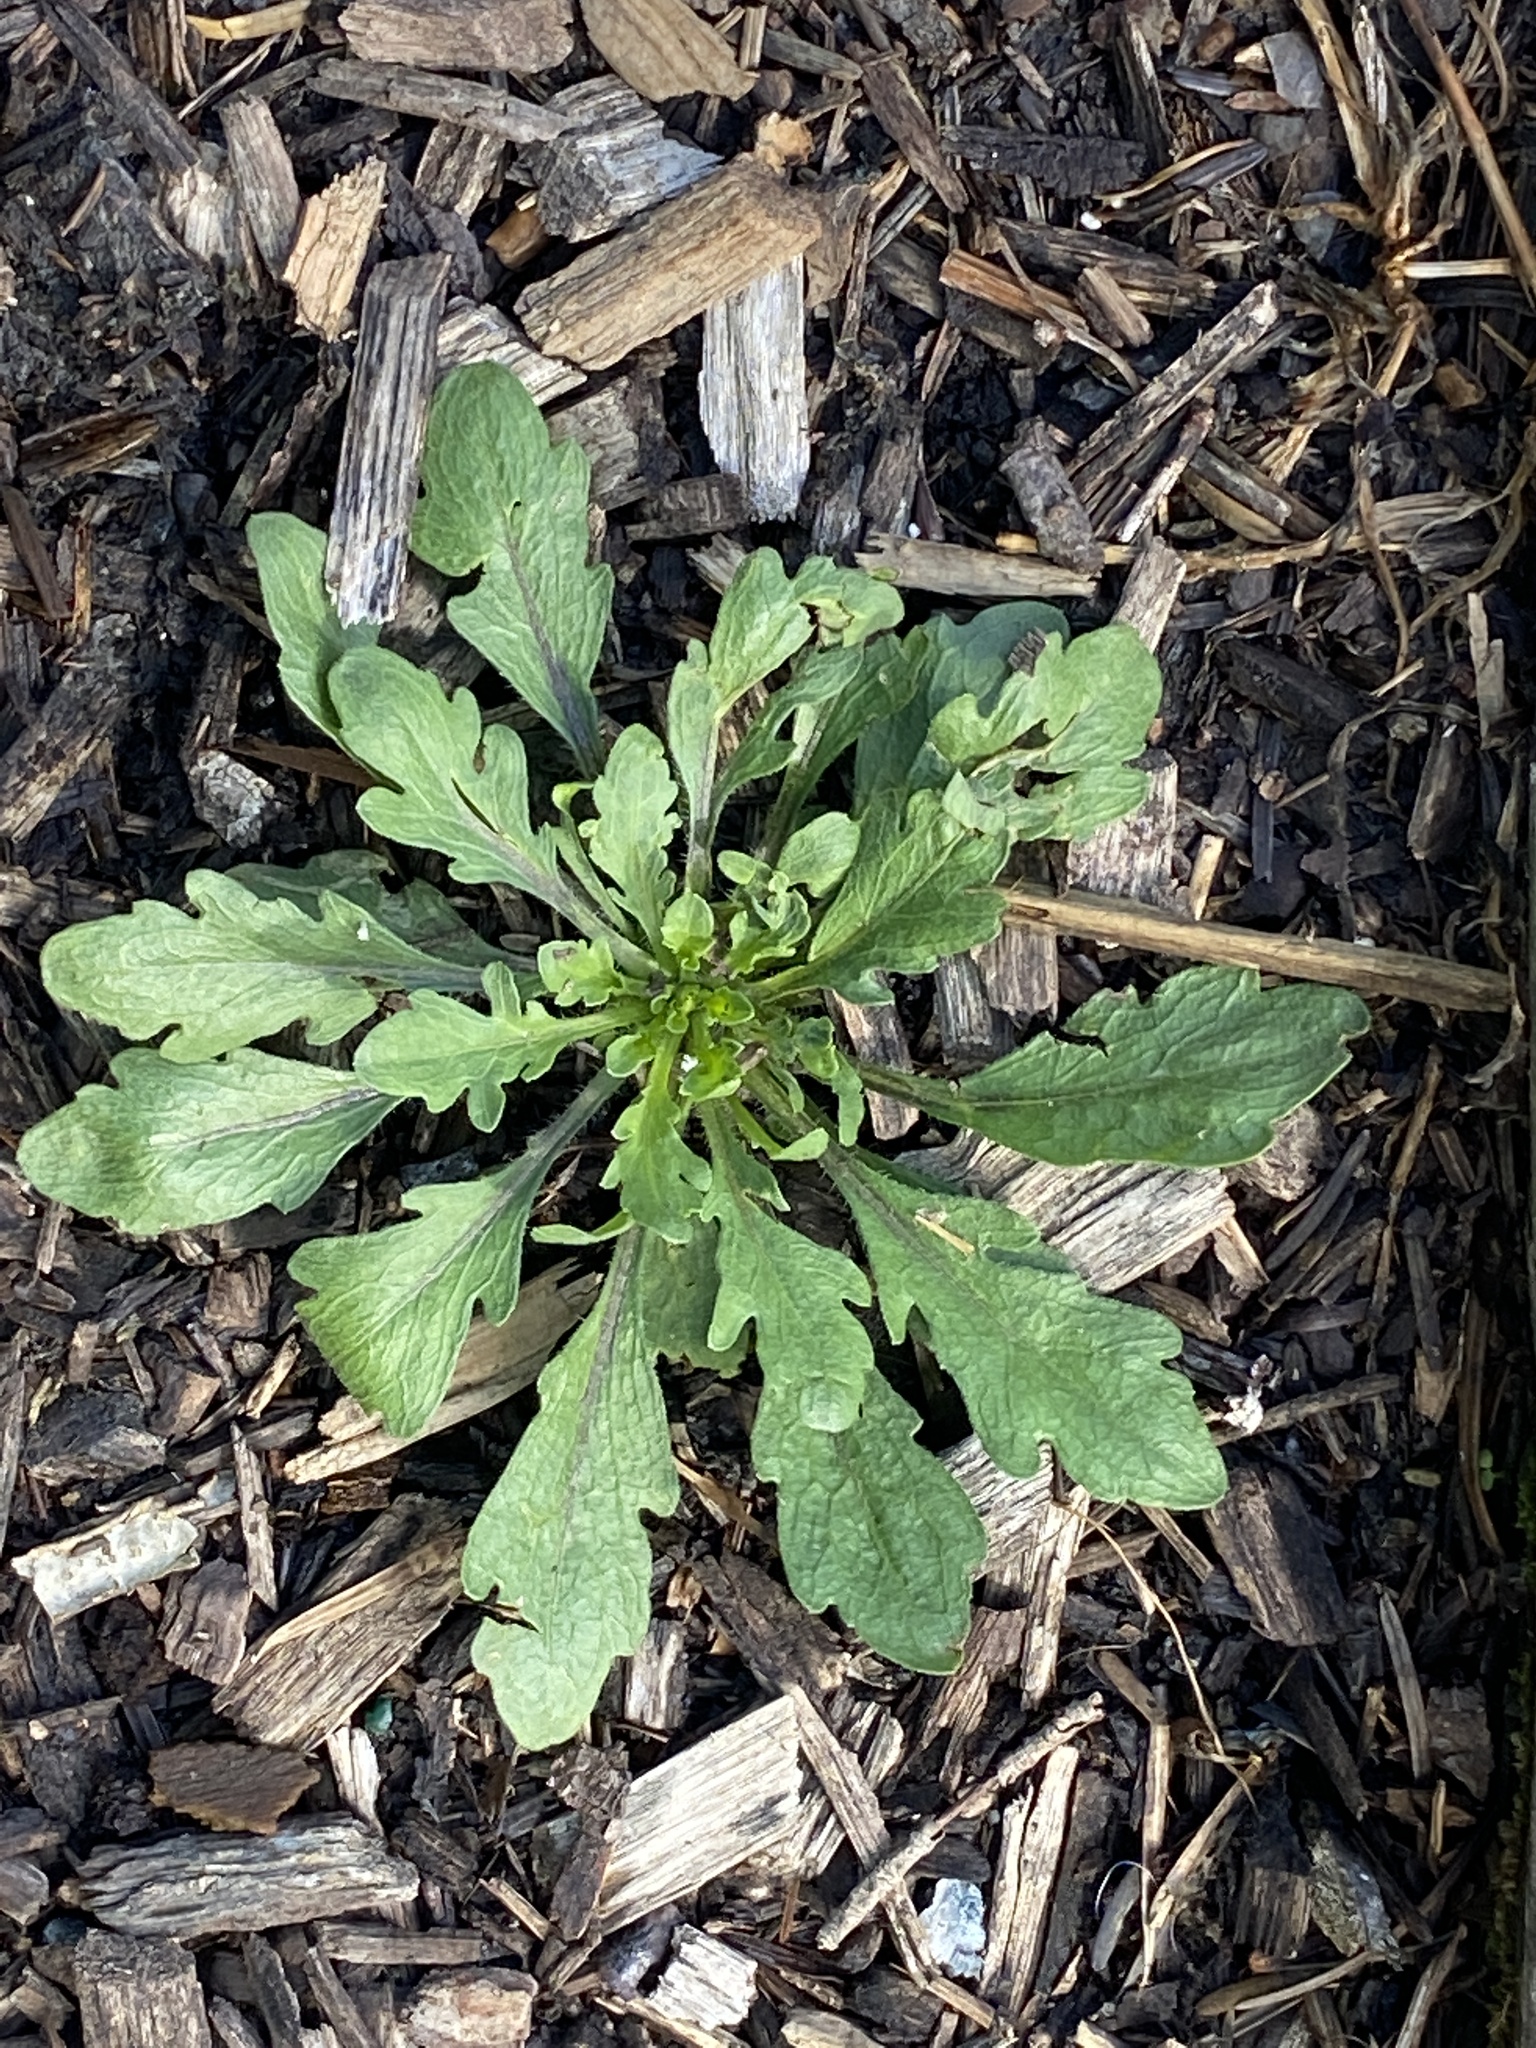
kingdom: Plantae
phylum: Tracheophyta
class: Magnoliopsida
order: Asterales
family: Asteraceae
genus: Erigeron
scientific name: Erigeron canadensis
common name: Canadian fleabane
